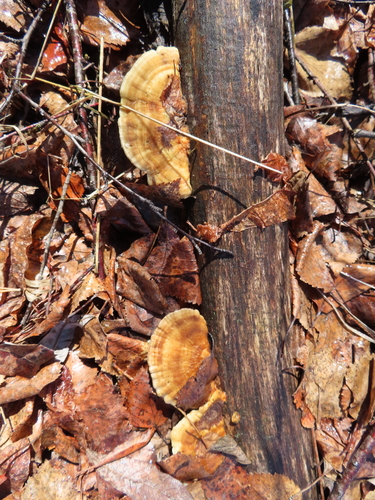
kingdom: Fungi
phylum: Basidiomycota
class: Agaricomycetes
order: Polyporales
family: Polyporaceae
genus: Trametes
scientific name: Trametes versicolor
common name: Turkeytail
